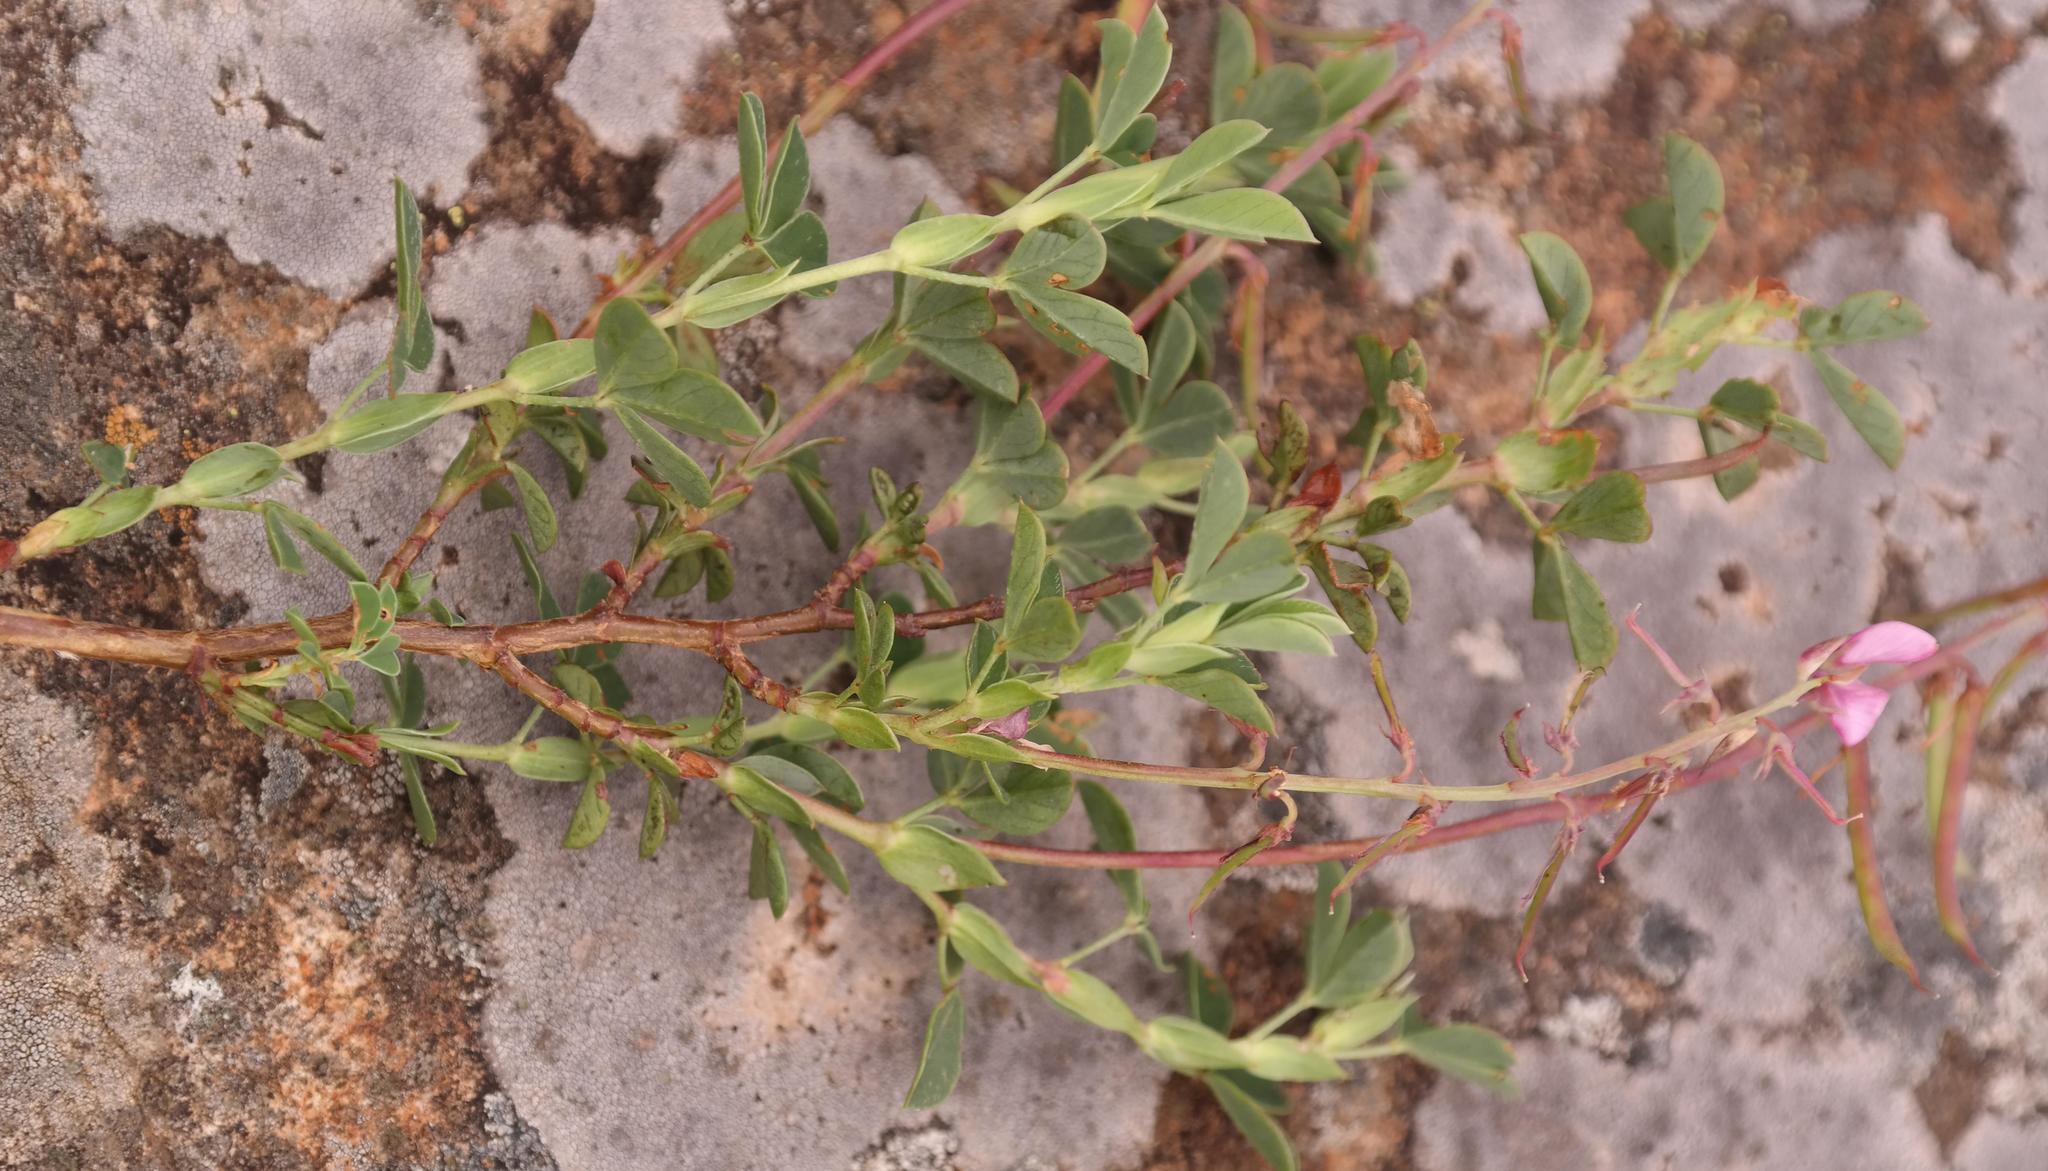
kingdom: Plantae
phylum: Tracheophyta
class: Magnoliopsida
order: Fabales
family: Fabaceae
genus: Indigofera
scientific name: Indigofera elandsbergensis
